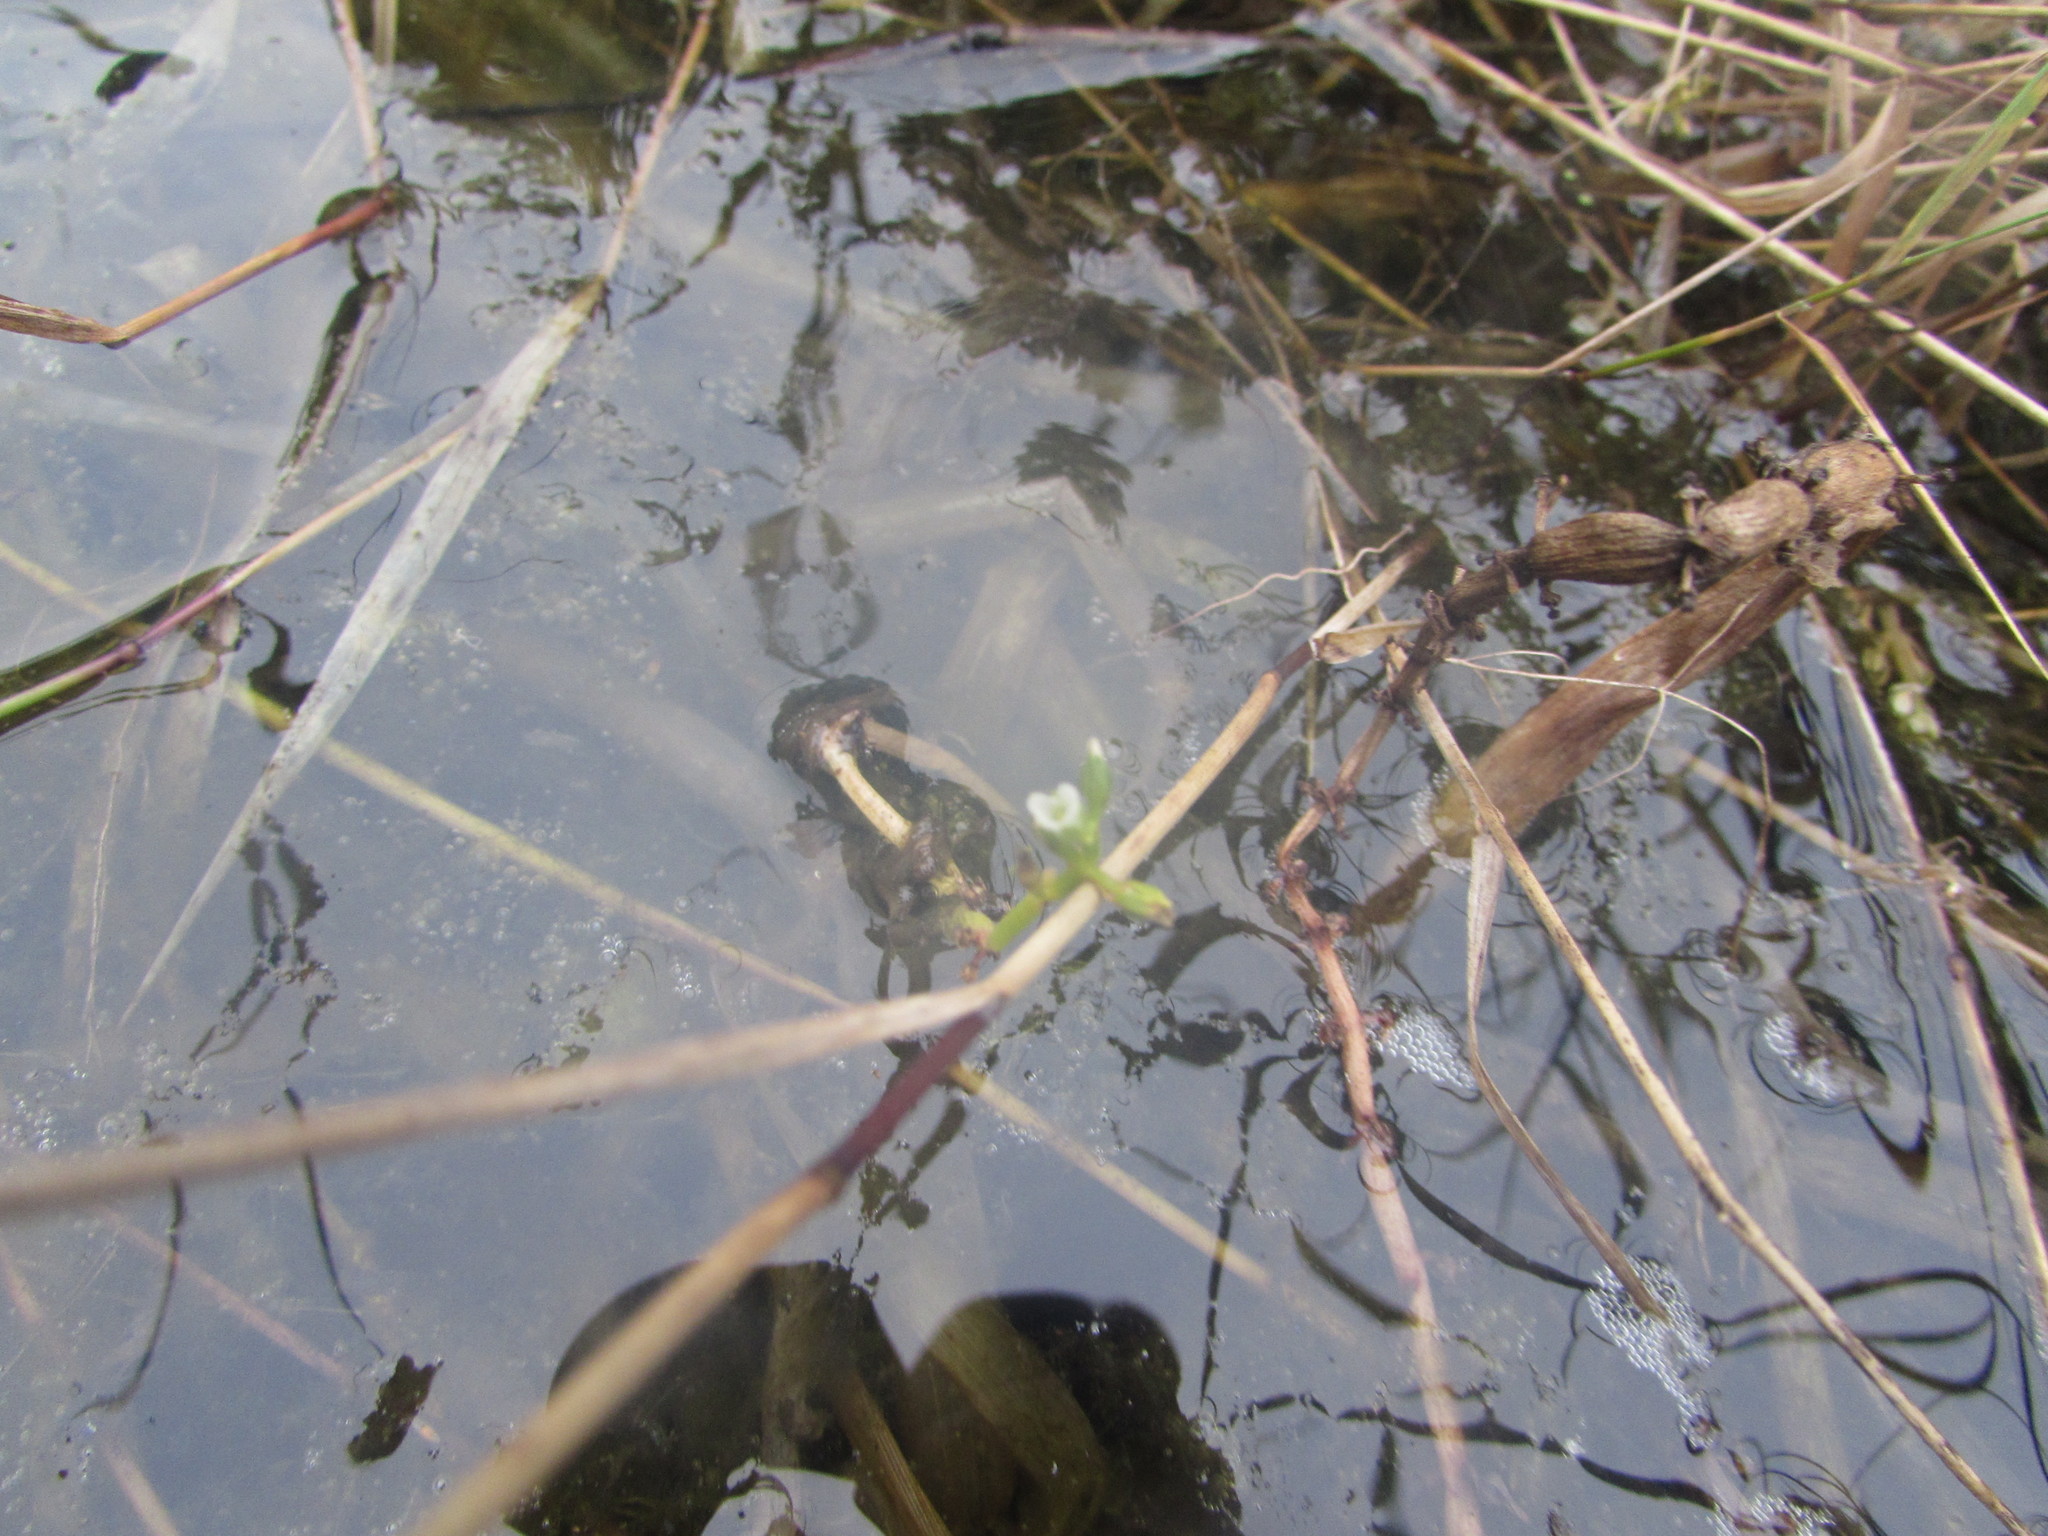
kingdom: Plantae
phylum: Tracheophyta
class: Magnoliopsida
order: Ericales
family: Primulaceae
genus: Hottonia
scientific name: Hottonia inflata
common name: American featherfoil
